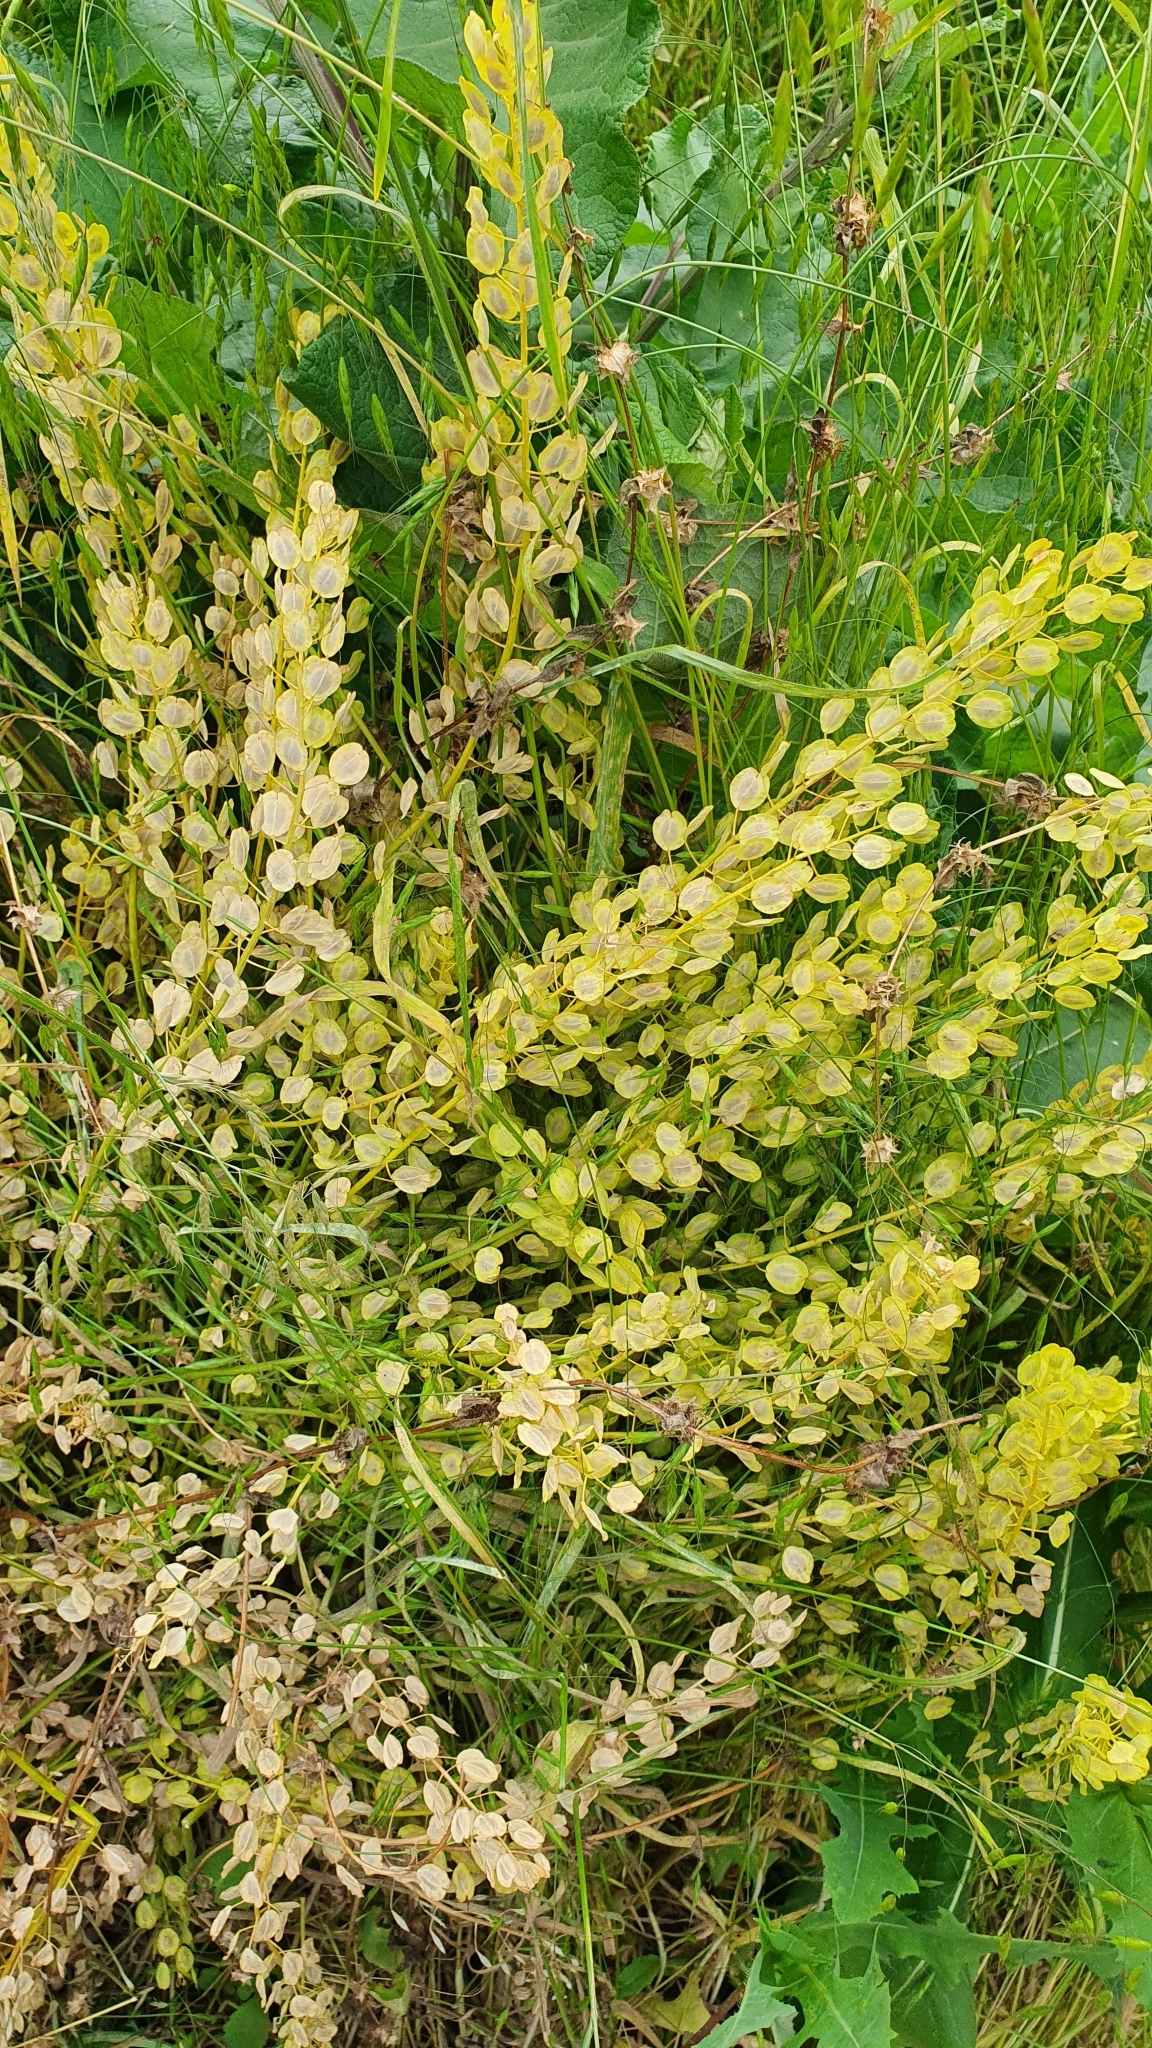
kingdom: Plantae
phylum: Tracheophyta
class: Magnoliopsida
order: Brassicales
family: Brassicaceae
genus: Thlaspi
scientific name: Thlaspi arvense
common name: Field pennycress
